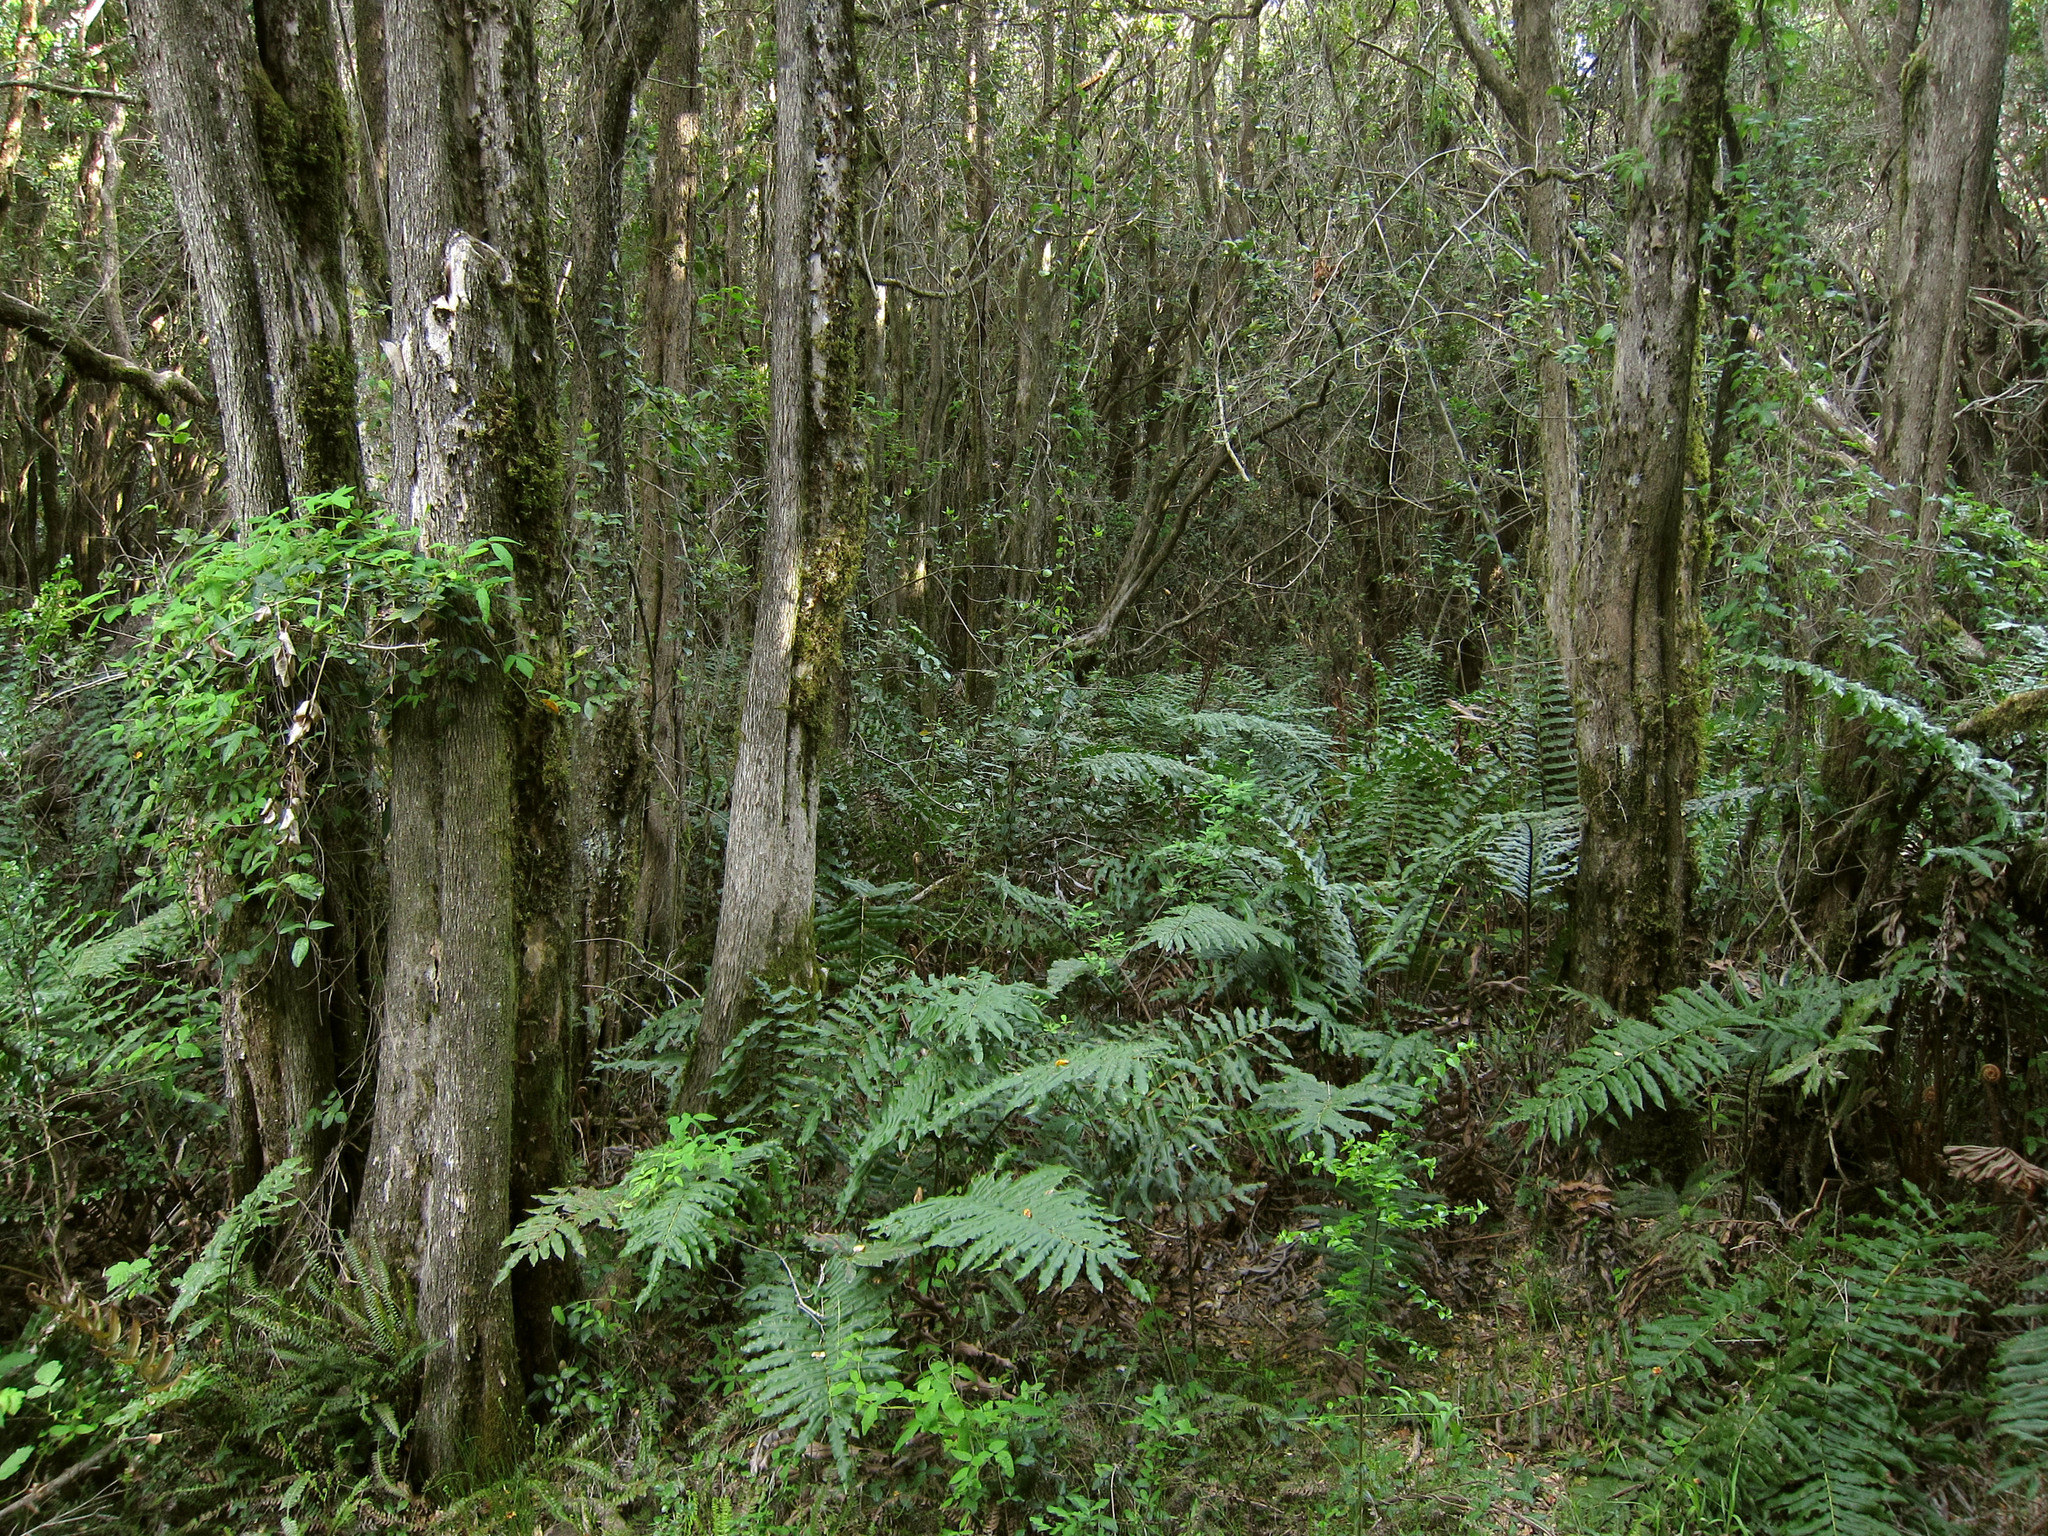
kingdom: Plantae
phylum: Tracheophyta
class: Magnoliopsida
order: Myrtales
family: Myrtaceae
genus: Myrceugenia
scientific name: Myrceugenia exsucca
